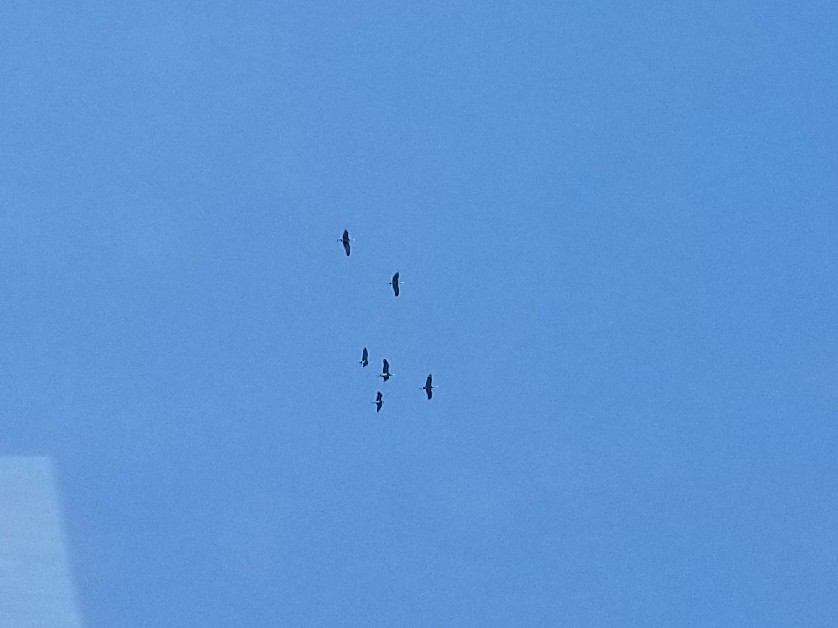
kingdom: Animalia
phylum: Chordata
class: Aves
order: Gruiformes
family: Gruidae
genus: Grus
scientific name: Grus canadensis
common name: Sandhill crane
